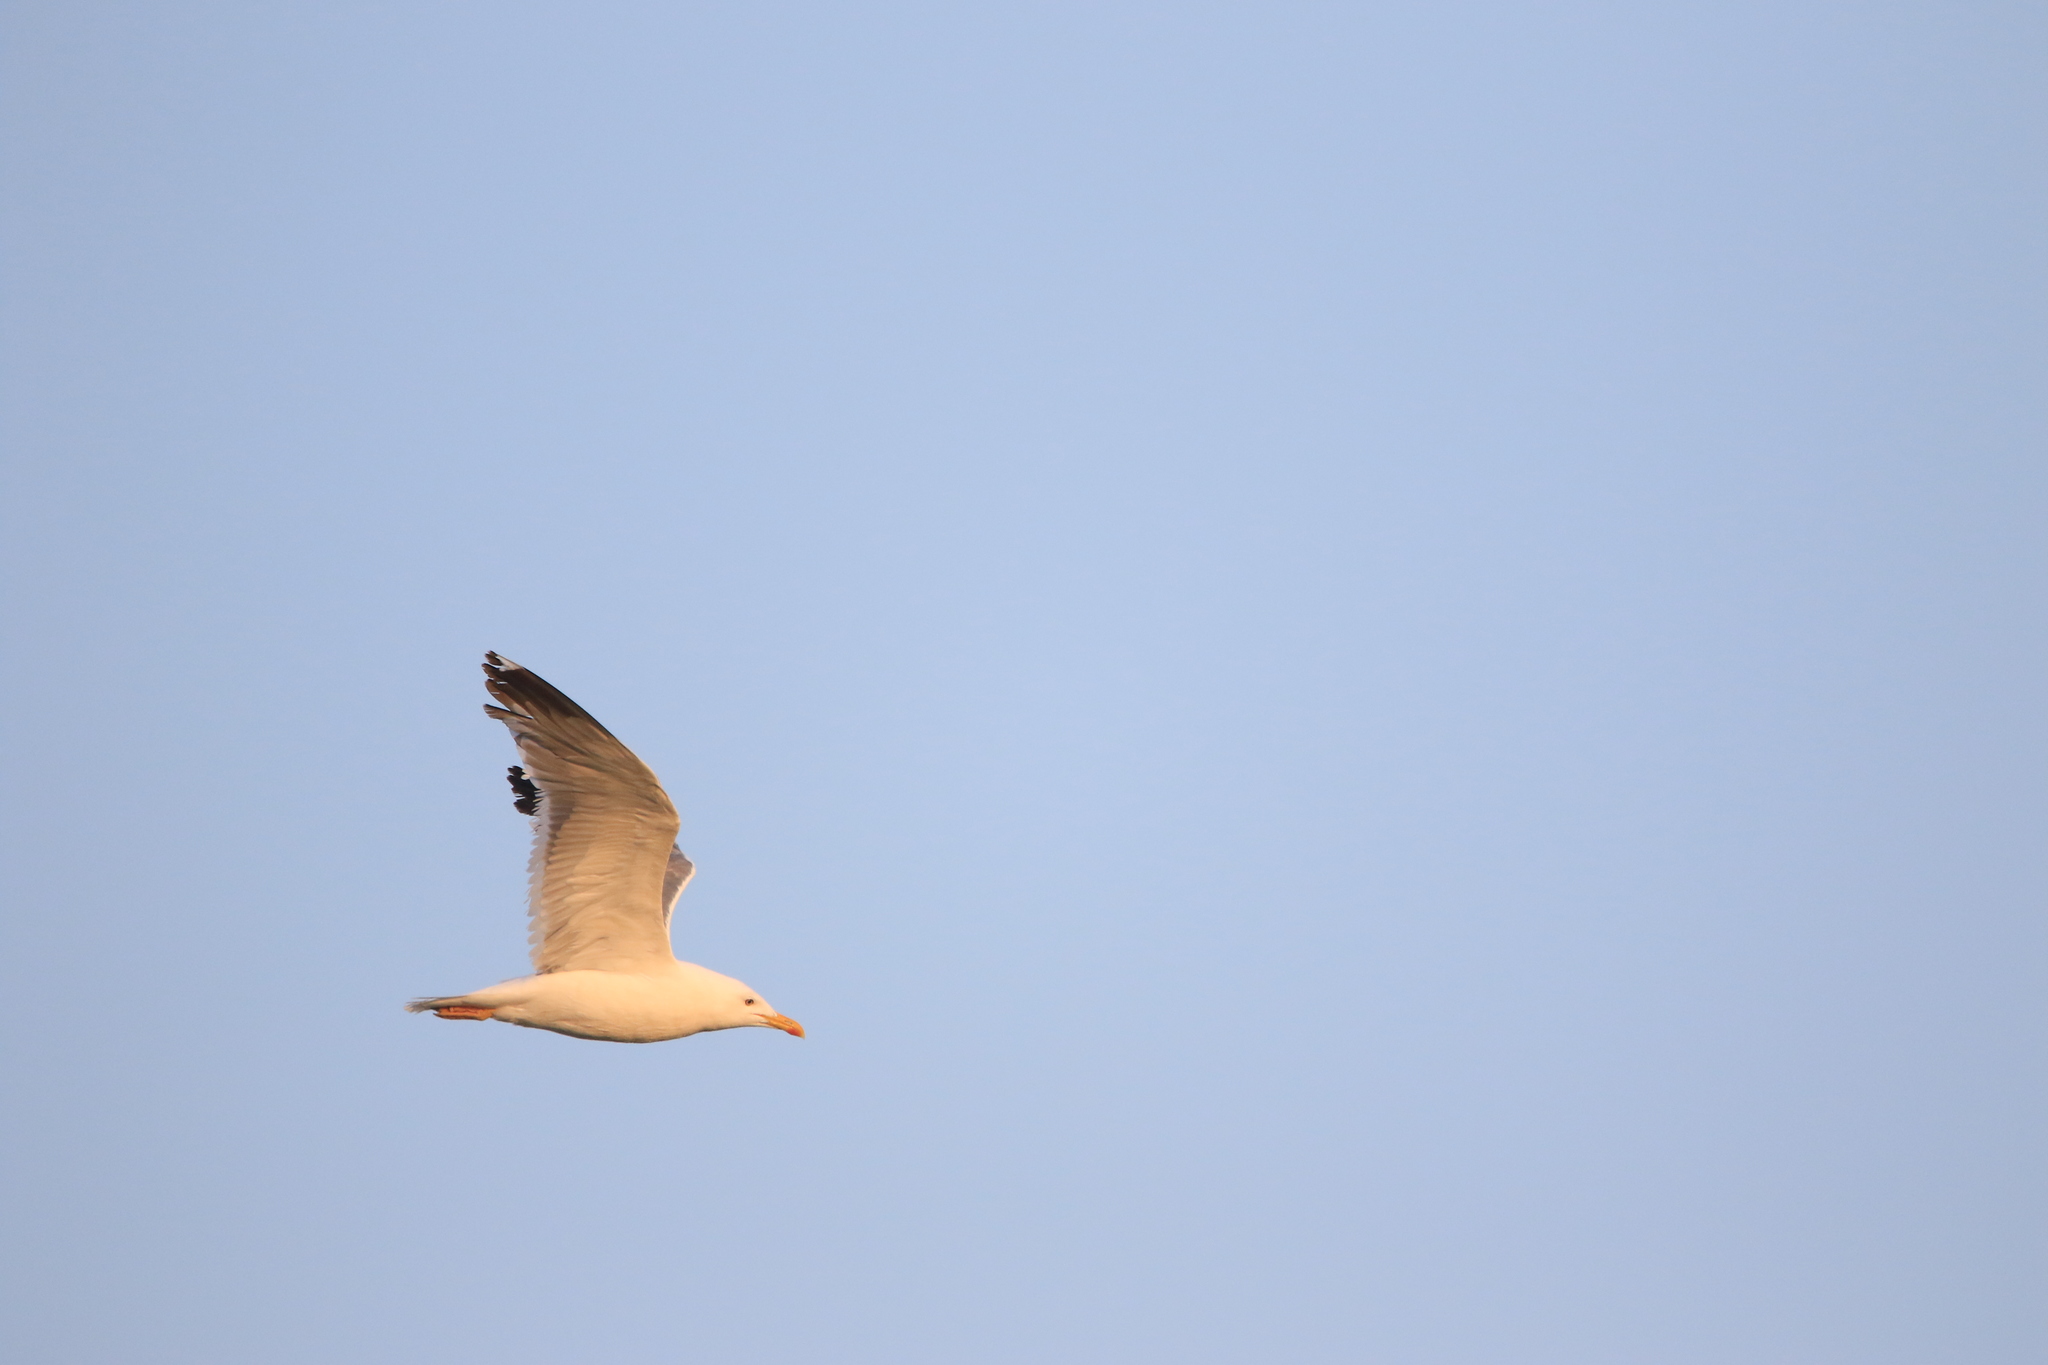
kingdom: Animalia
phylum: Chordata
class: Aves
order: Charadriiformes
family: Laridae
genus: Larus
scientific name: Larus fuscus
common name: Lesser black-backed gull
